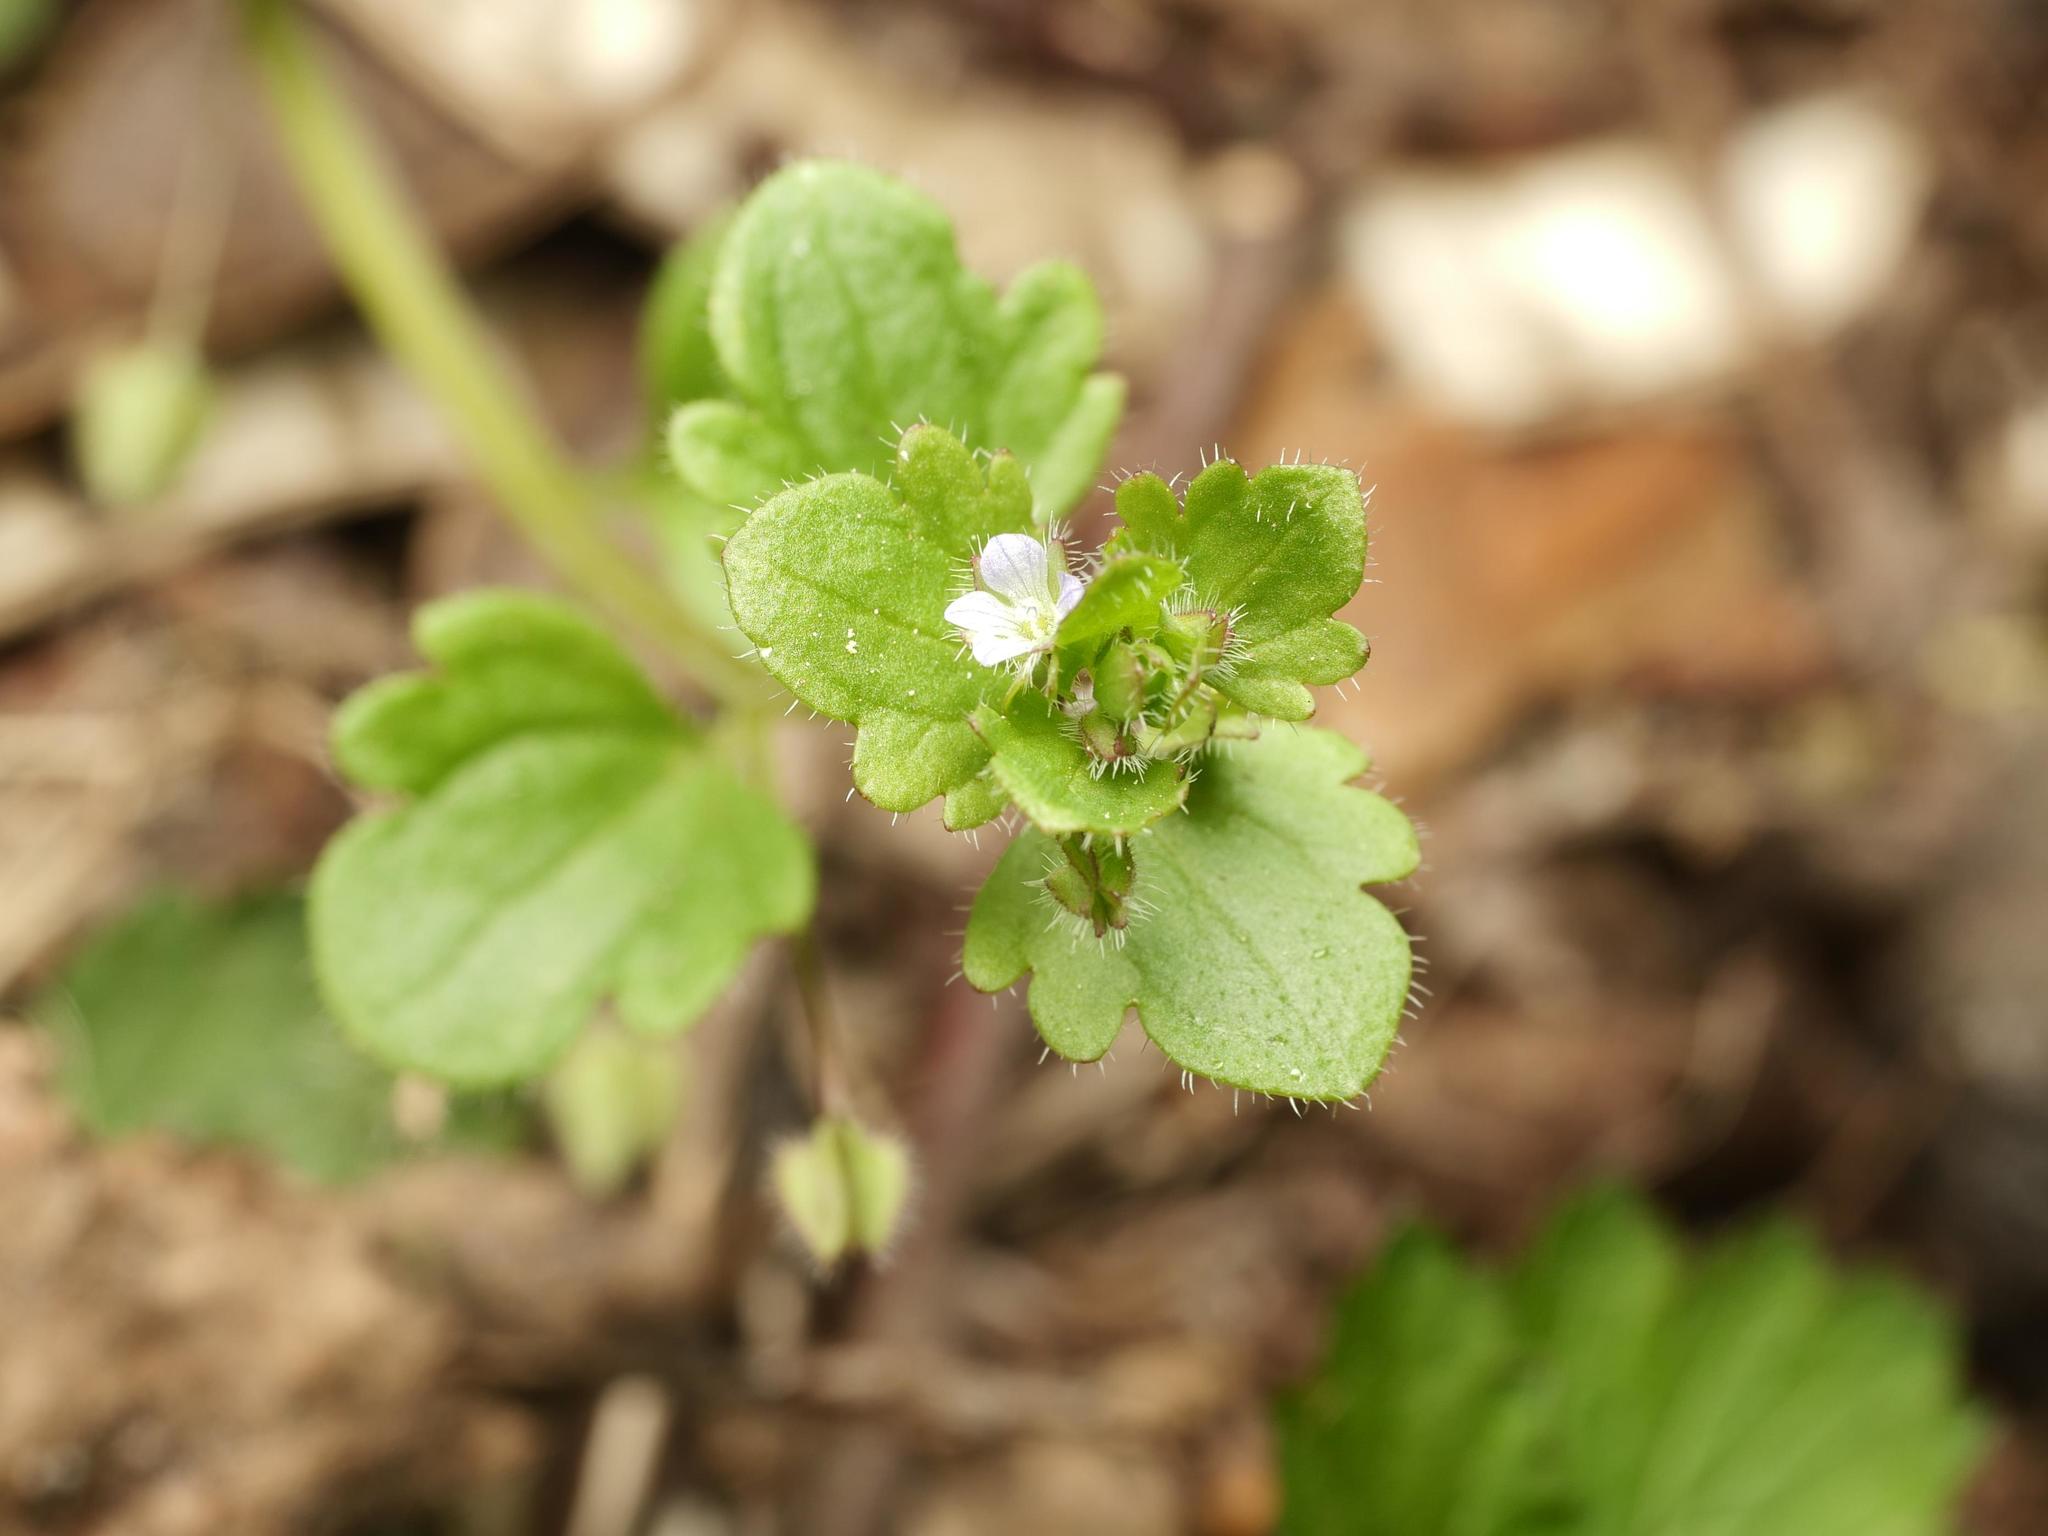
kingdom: Plantae
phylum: Tracheophyta
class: Magnoliopsida
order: Lamiales
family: Plantaginaceae
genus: Veronica
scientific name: Veronica sublobata
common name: False ivy-leaved speedwell
